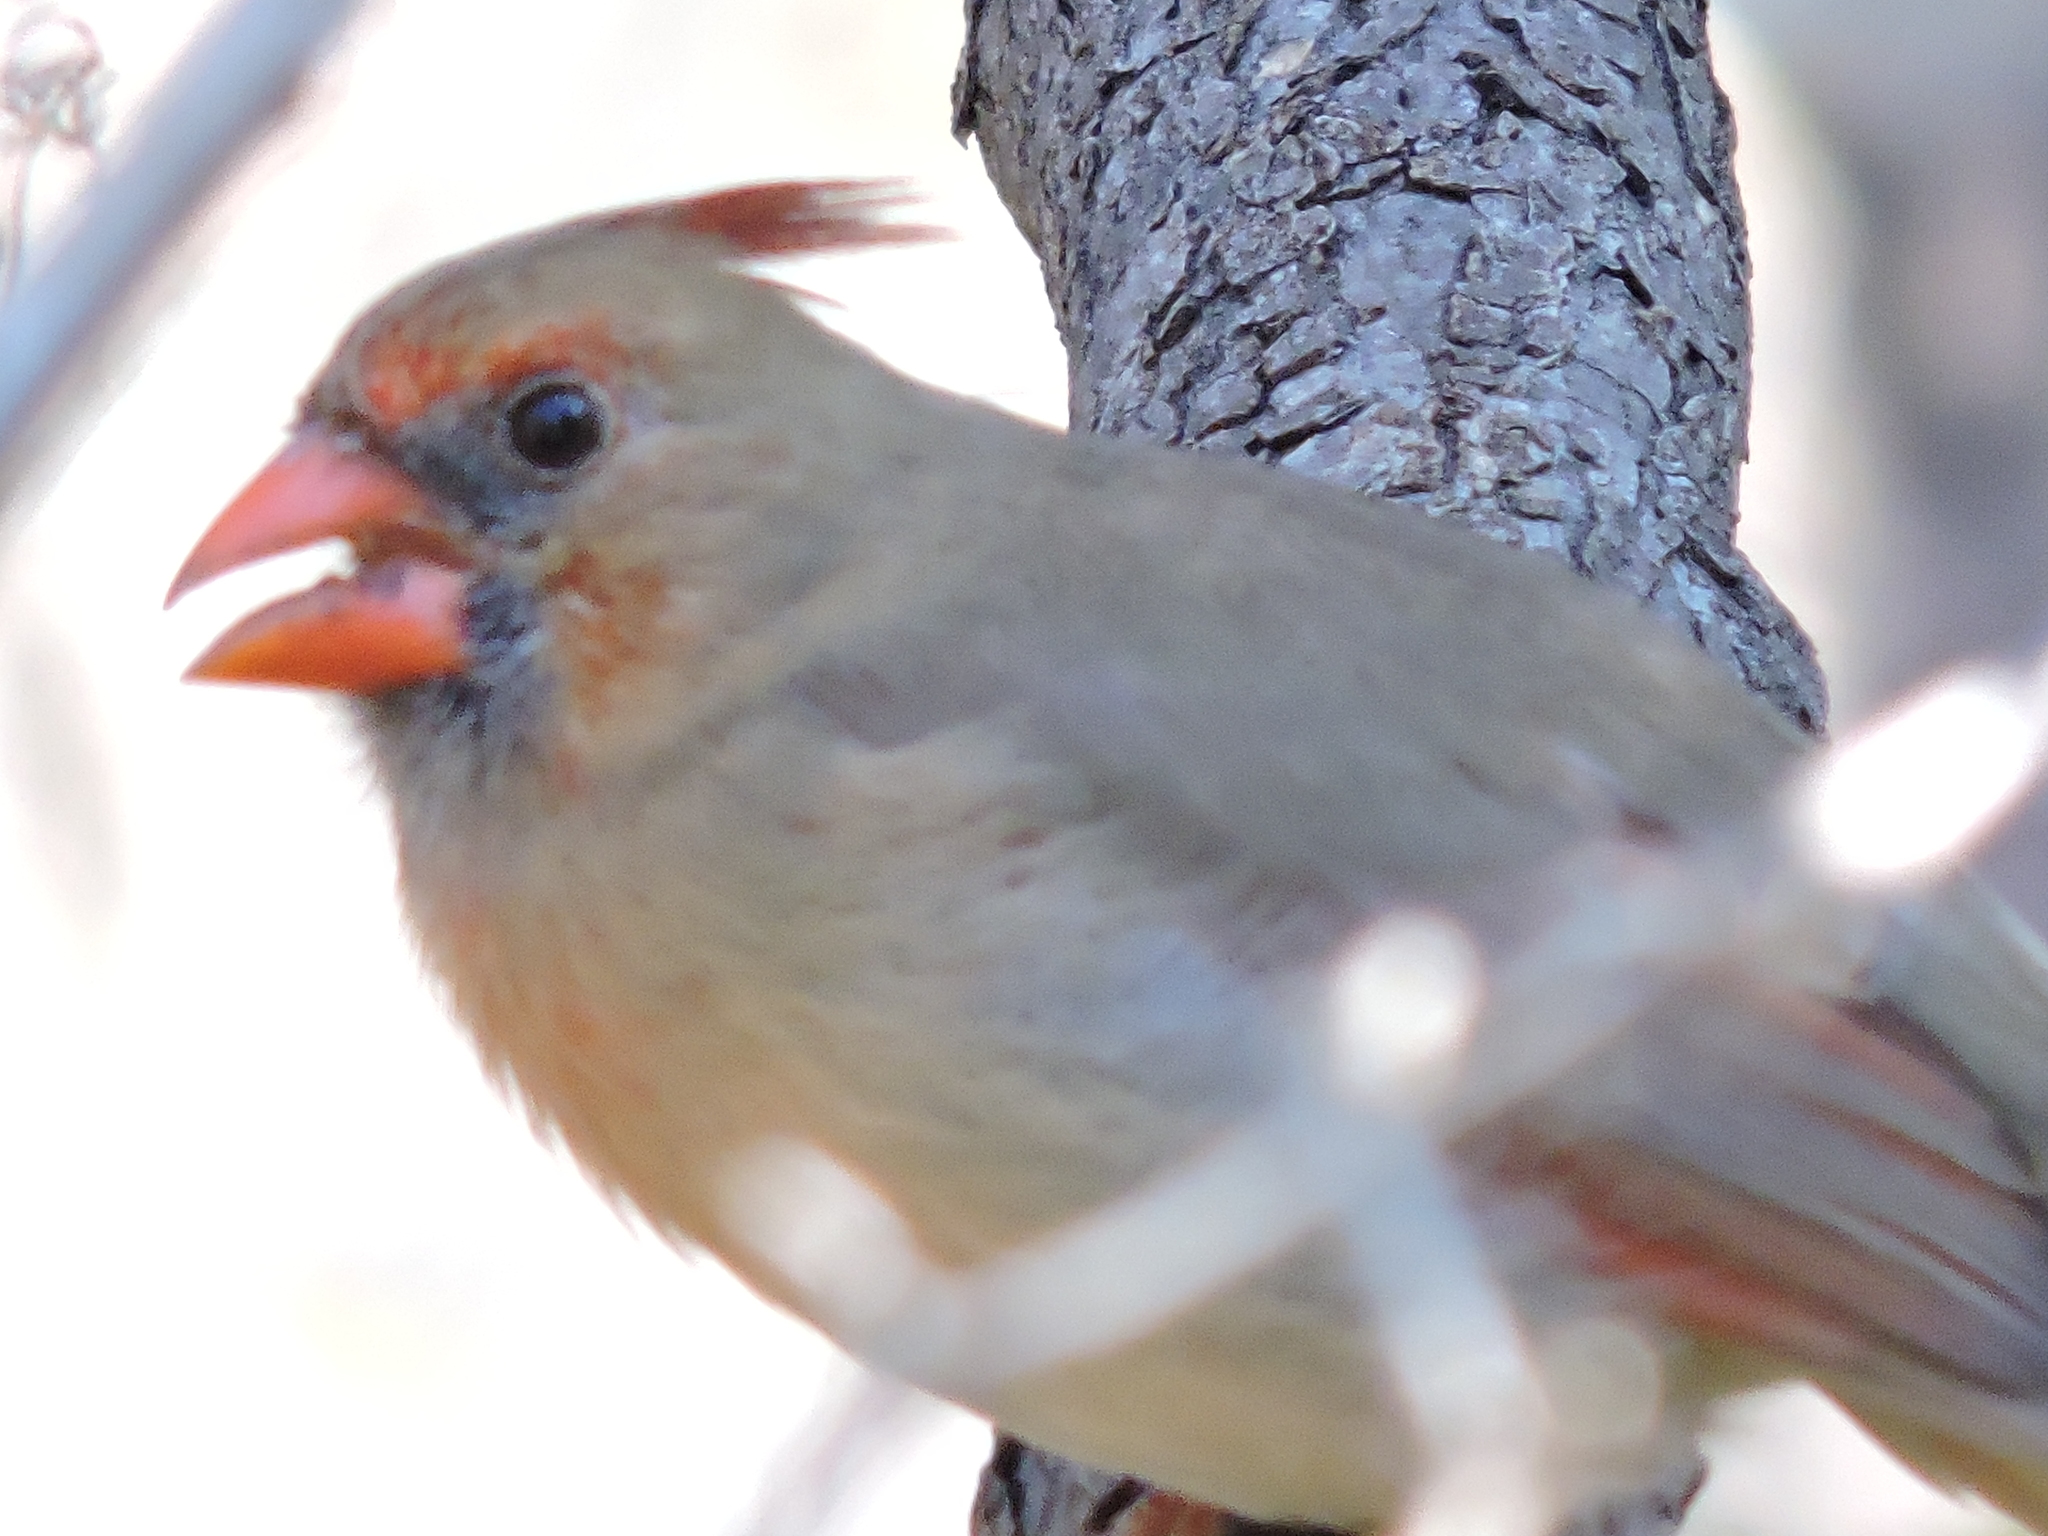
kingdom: Animalia
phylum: Chordata
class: Aves
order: Passeriformes
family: Cardinalidae
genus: Cardinalis
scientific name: Cardinalis cardinalis
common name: Northern cardinal
